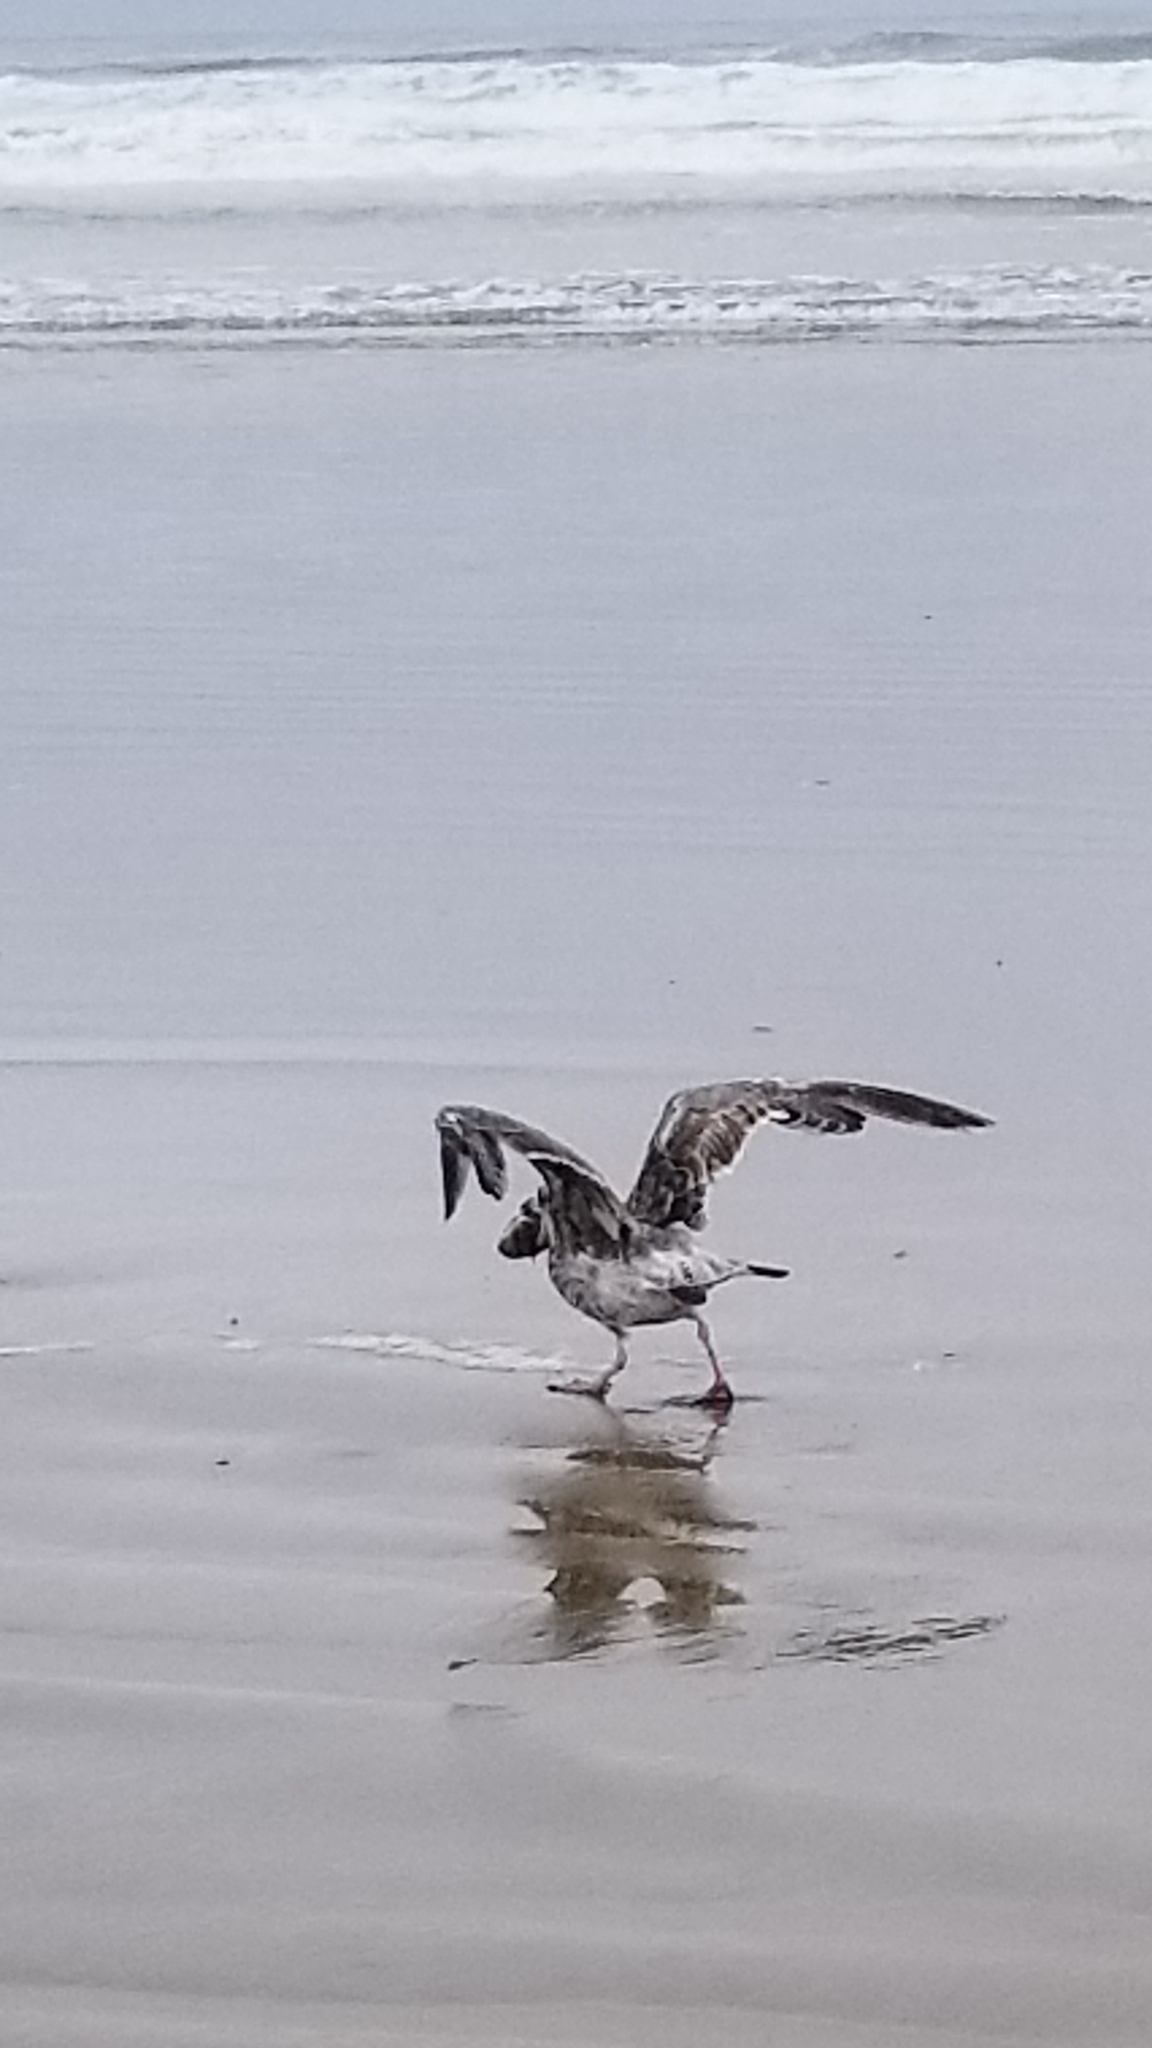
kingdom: Animalia
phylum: Chordata
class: Aves
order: Charadriiformes
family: Laridae
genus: Larus
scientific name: Larus occidentalis
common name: Western gull
